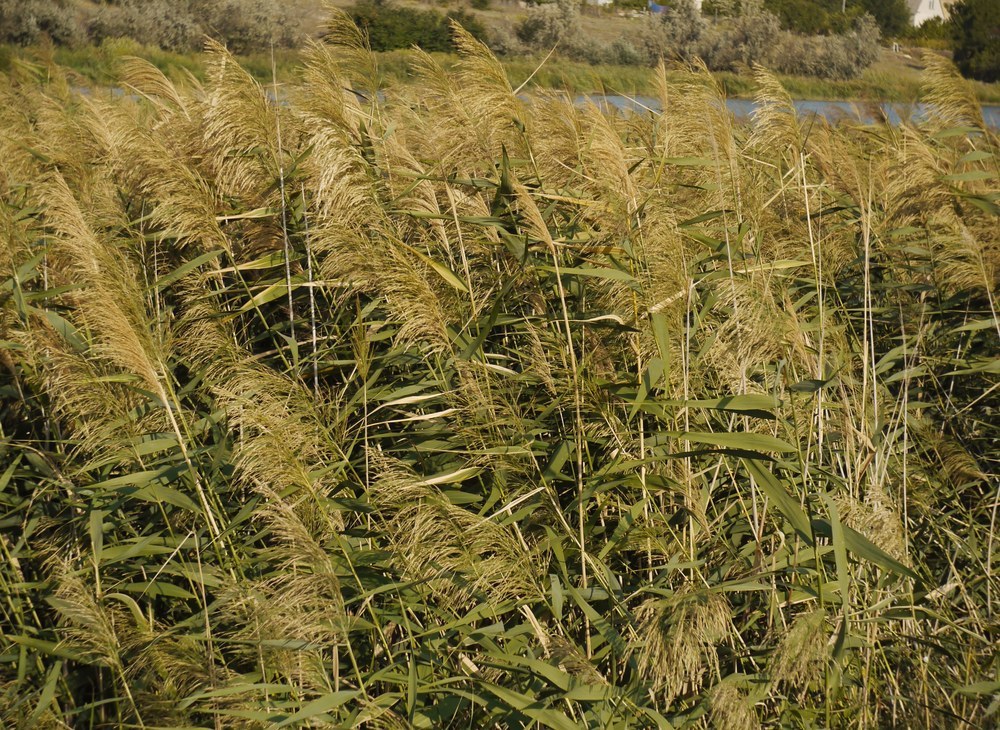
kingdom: Plantae
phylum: Tracheophyta
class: Liliopsida
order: Poales
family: Poaceae
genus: Phragmites
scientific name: Phragmites australis
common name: Common reed
